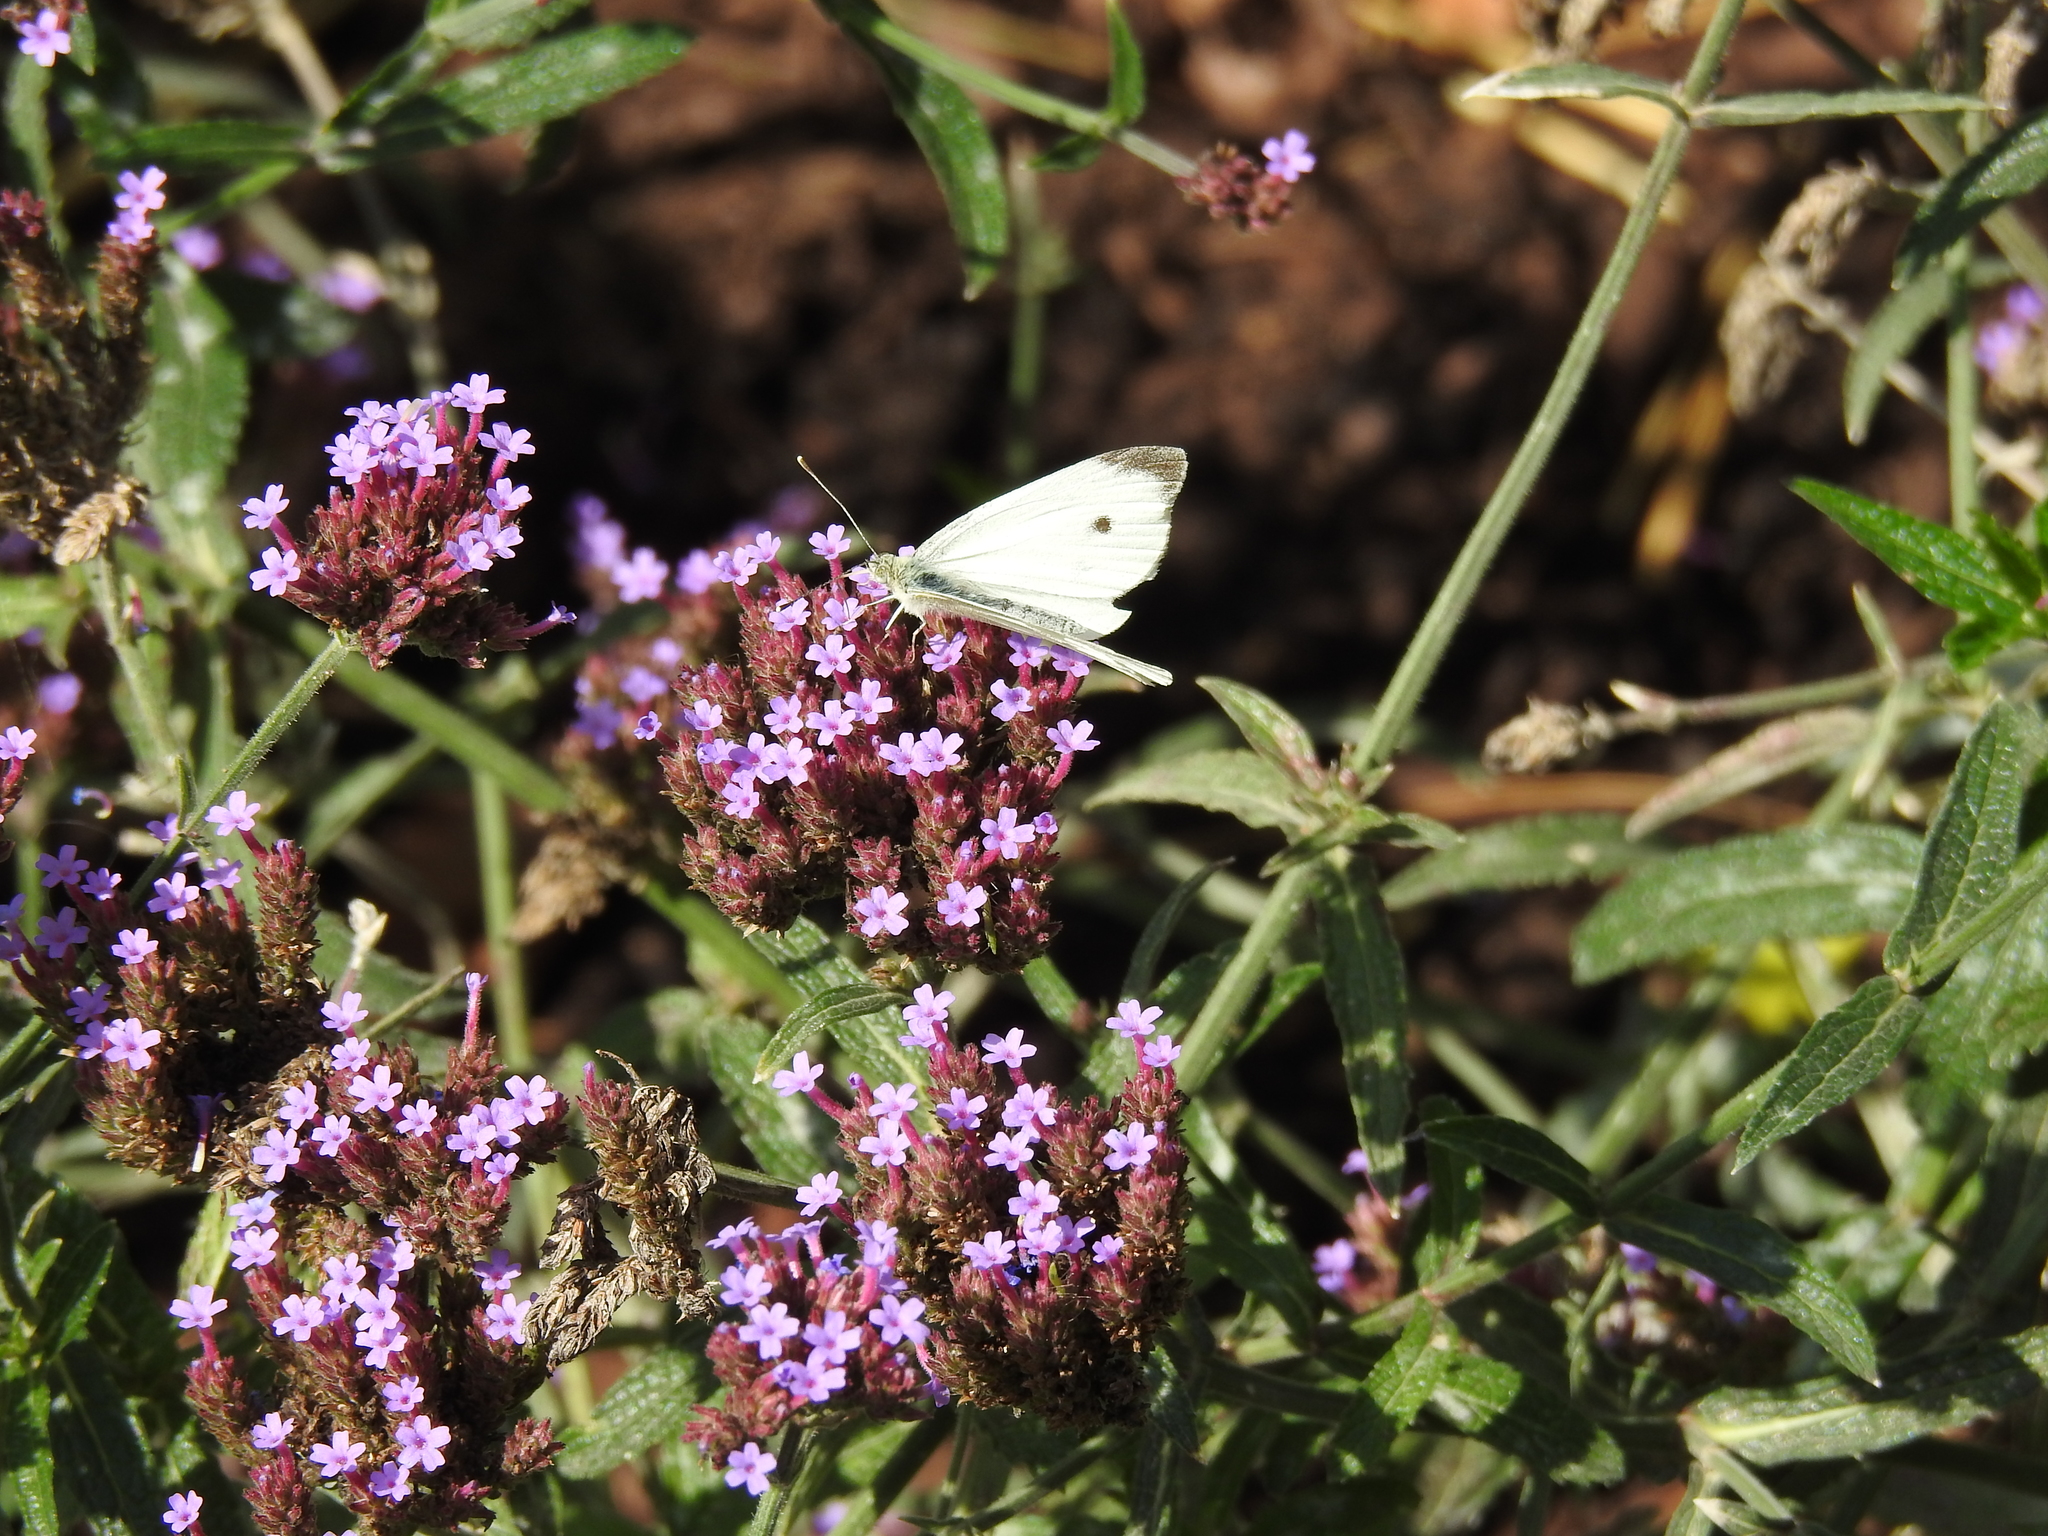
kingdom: Animalia
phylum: Arthropoda
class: Insecta
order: Lepidoptera
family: Pieridae
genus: Pieris
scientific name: Pieris rapae
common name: Small white
